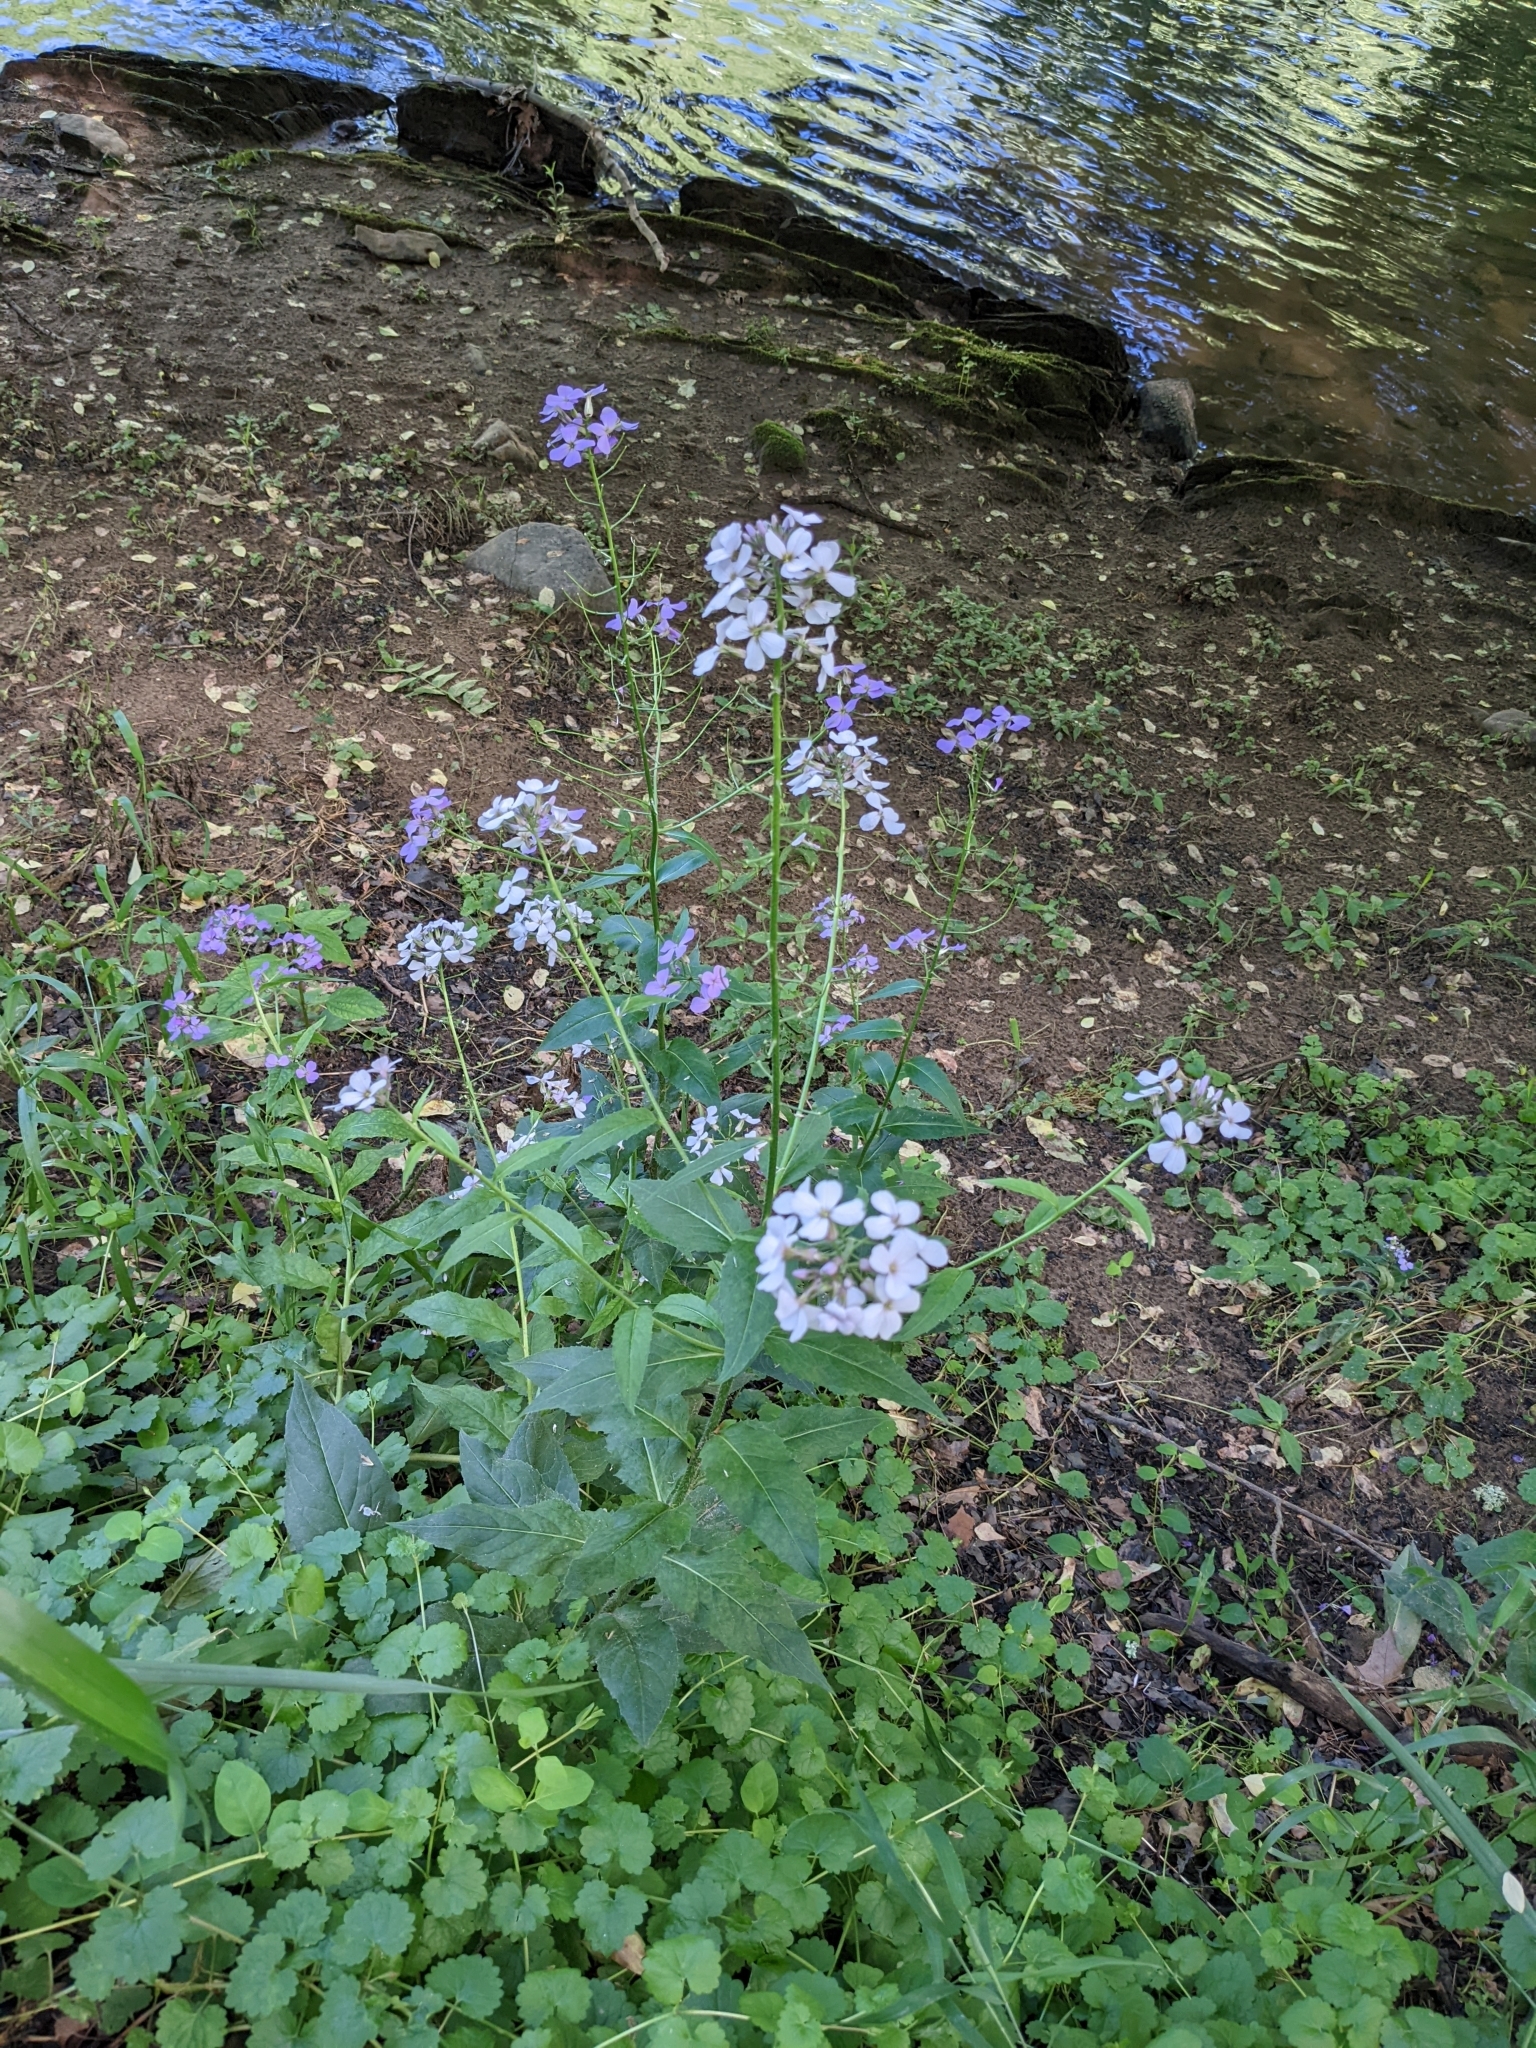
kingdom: Plantae
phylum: Tracheophyta
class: Magnoliopsida
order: Brassicales
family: Brassicaceae
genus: Hesperis
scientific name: Hesperis matronalis
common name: Dame's-violet
